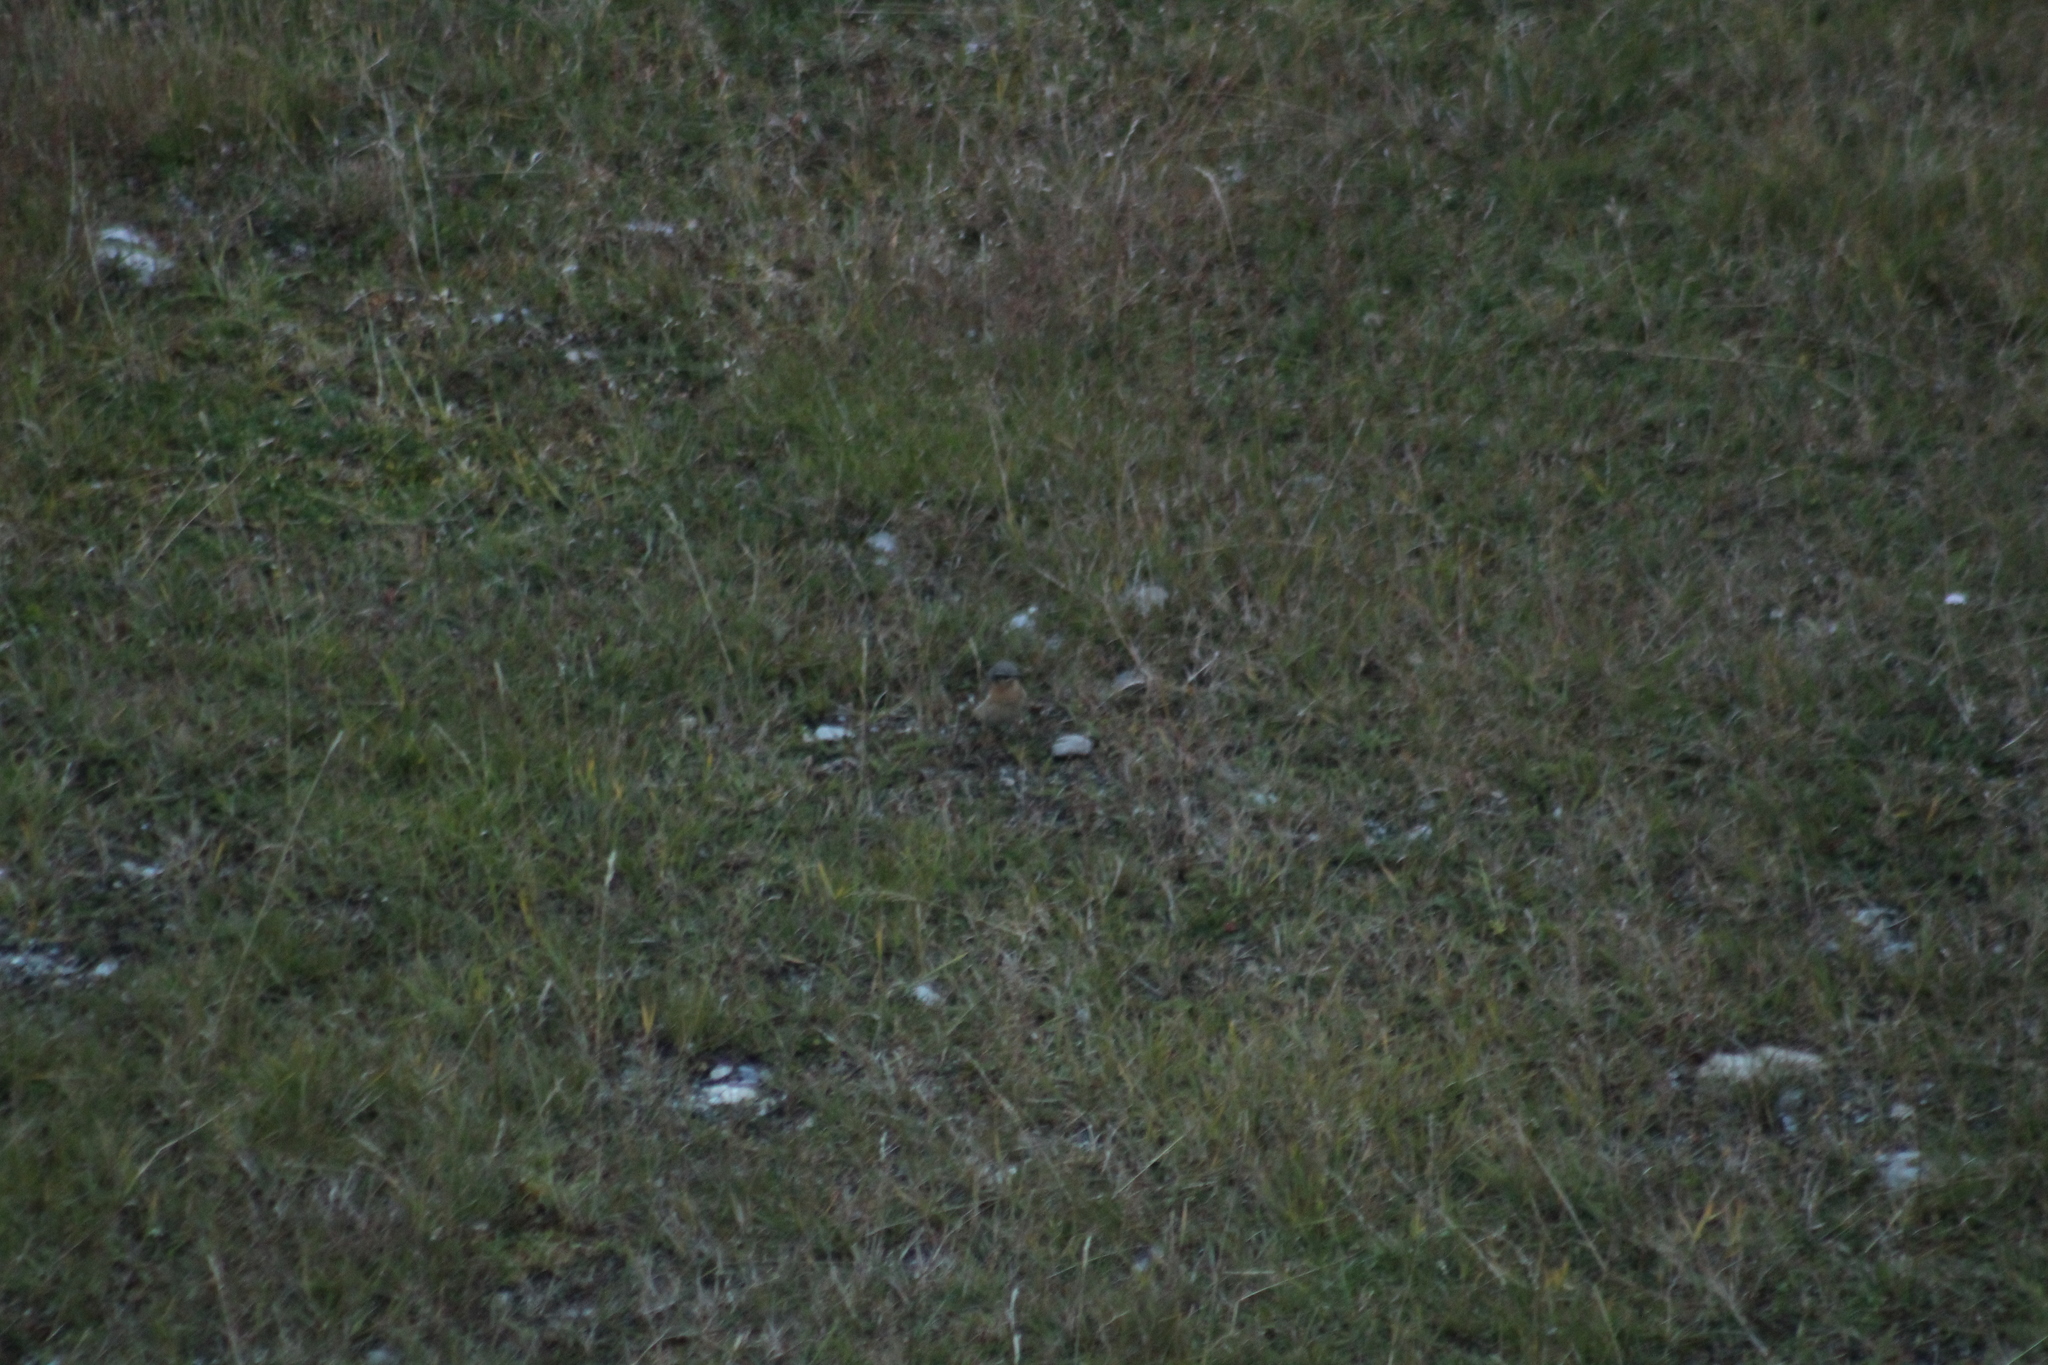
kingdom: Animalia
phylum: Chordata
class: Aves
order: Passeriformes
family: Muscicapidae
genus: Oenanthe
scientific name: Oenanthe oenanthe
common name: Northern wheatear
